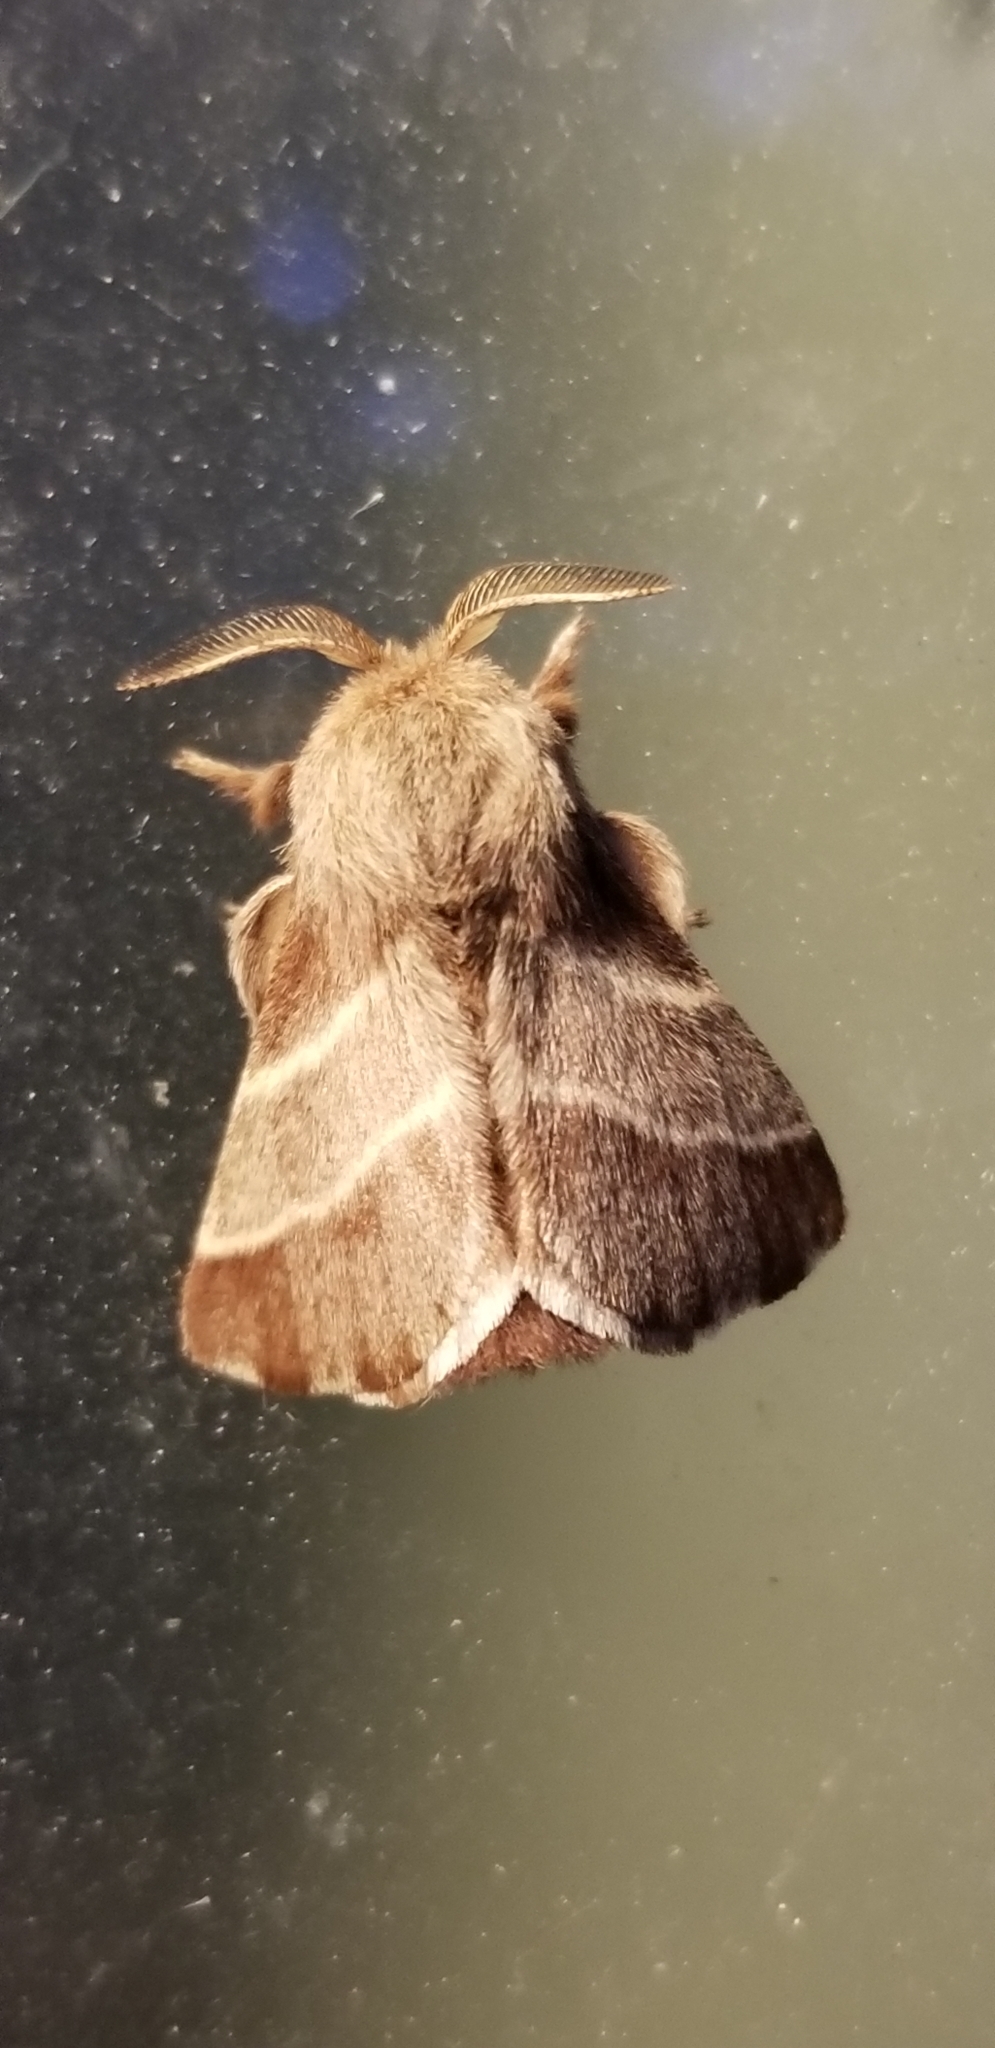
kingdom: Animalia
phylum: Arthropoda
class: Insecta
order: Lepidoptera
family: Lasiocampidae
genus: Malacosoma
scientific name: Malacosoma americana
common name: Eastern tent caterpillar moth
